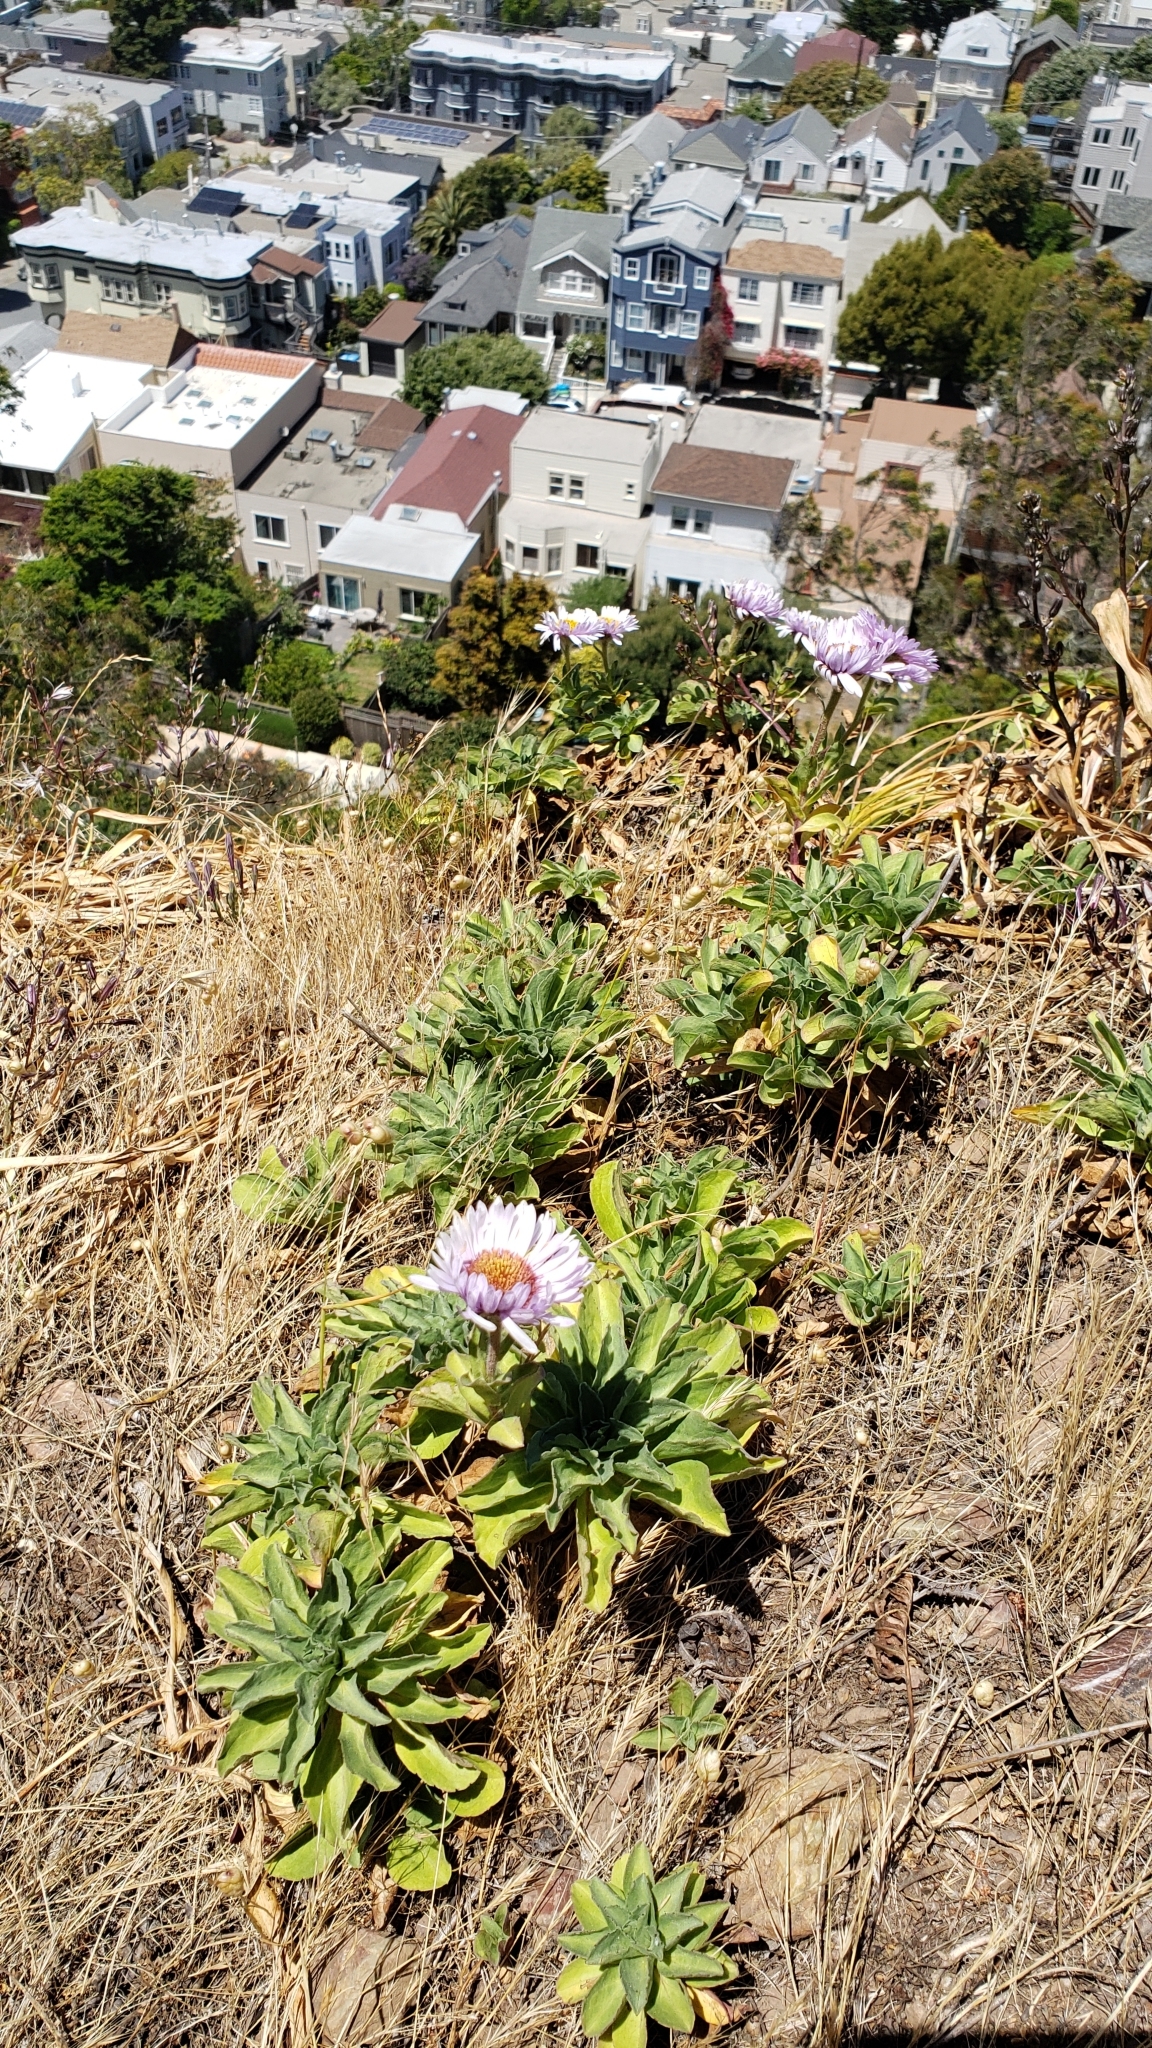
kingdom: Plantae
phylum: Tracheophyta
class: Magnoliopsida
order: Asterales
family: Asteraceae
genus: Erigeron
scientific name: Erigeron glaucus
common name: Seaside daisy
